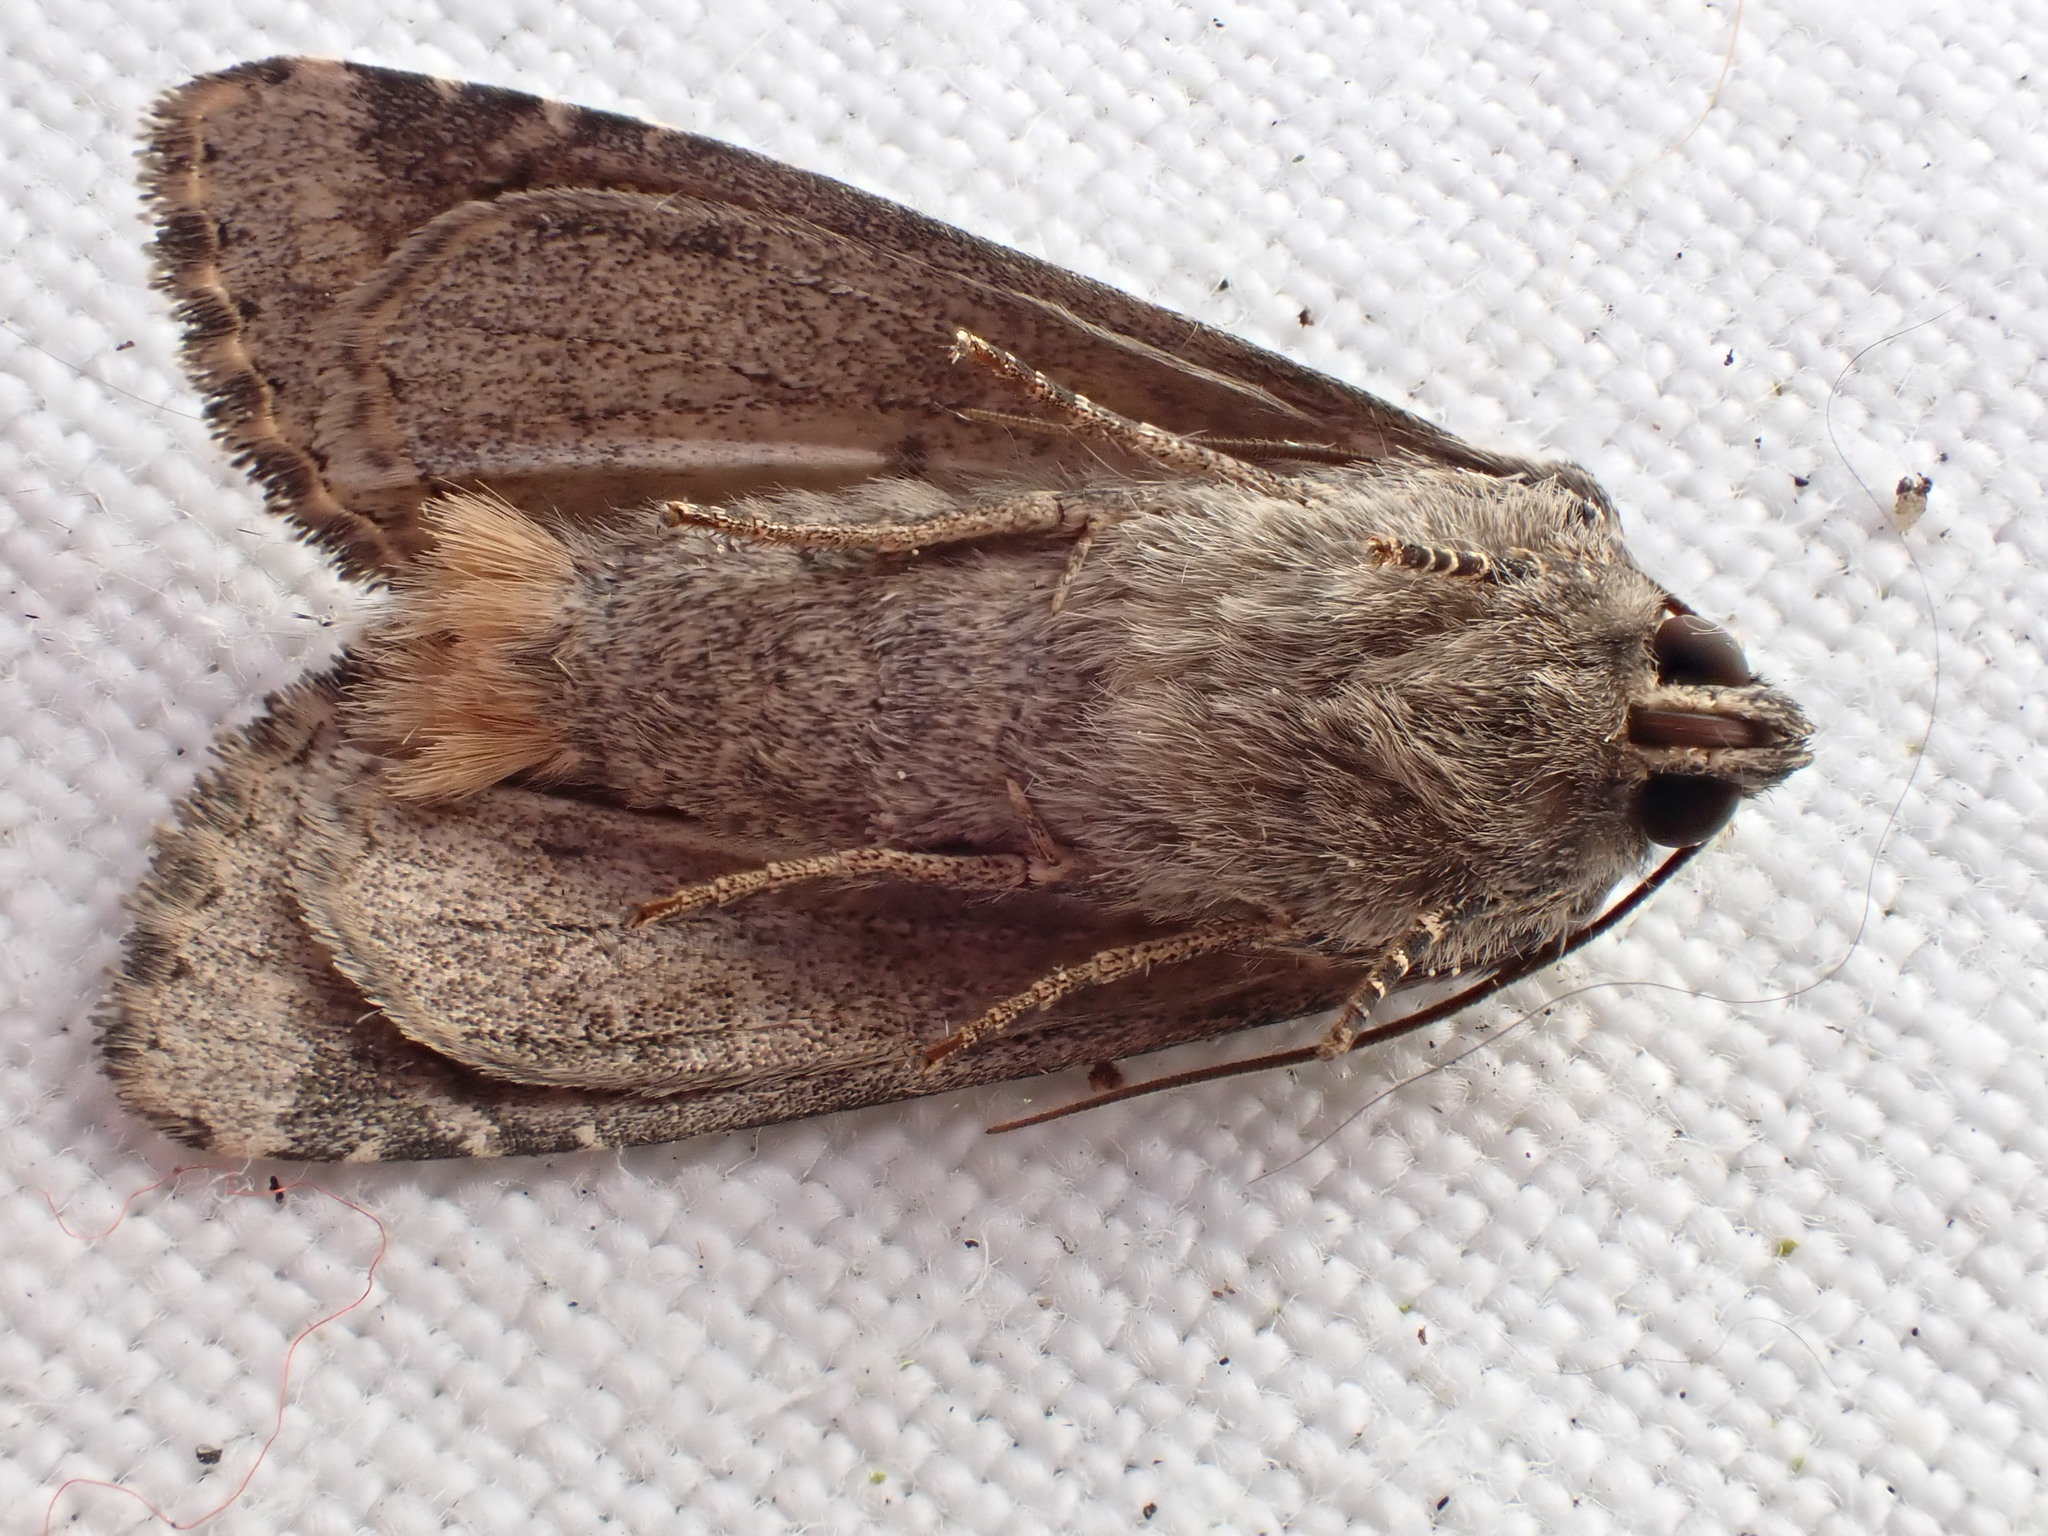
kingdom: Animalia
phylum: Arthropoda
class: Insecta
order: Lepidoptera
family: Noctuidae
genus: Apamea
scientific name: Apamea anceps
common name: Large nutmeg
